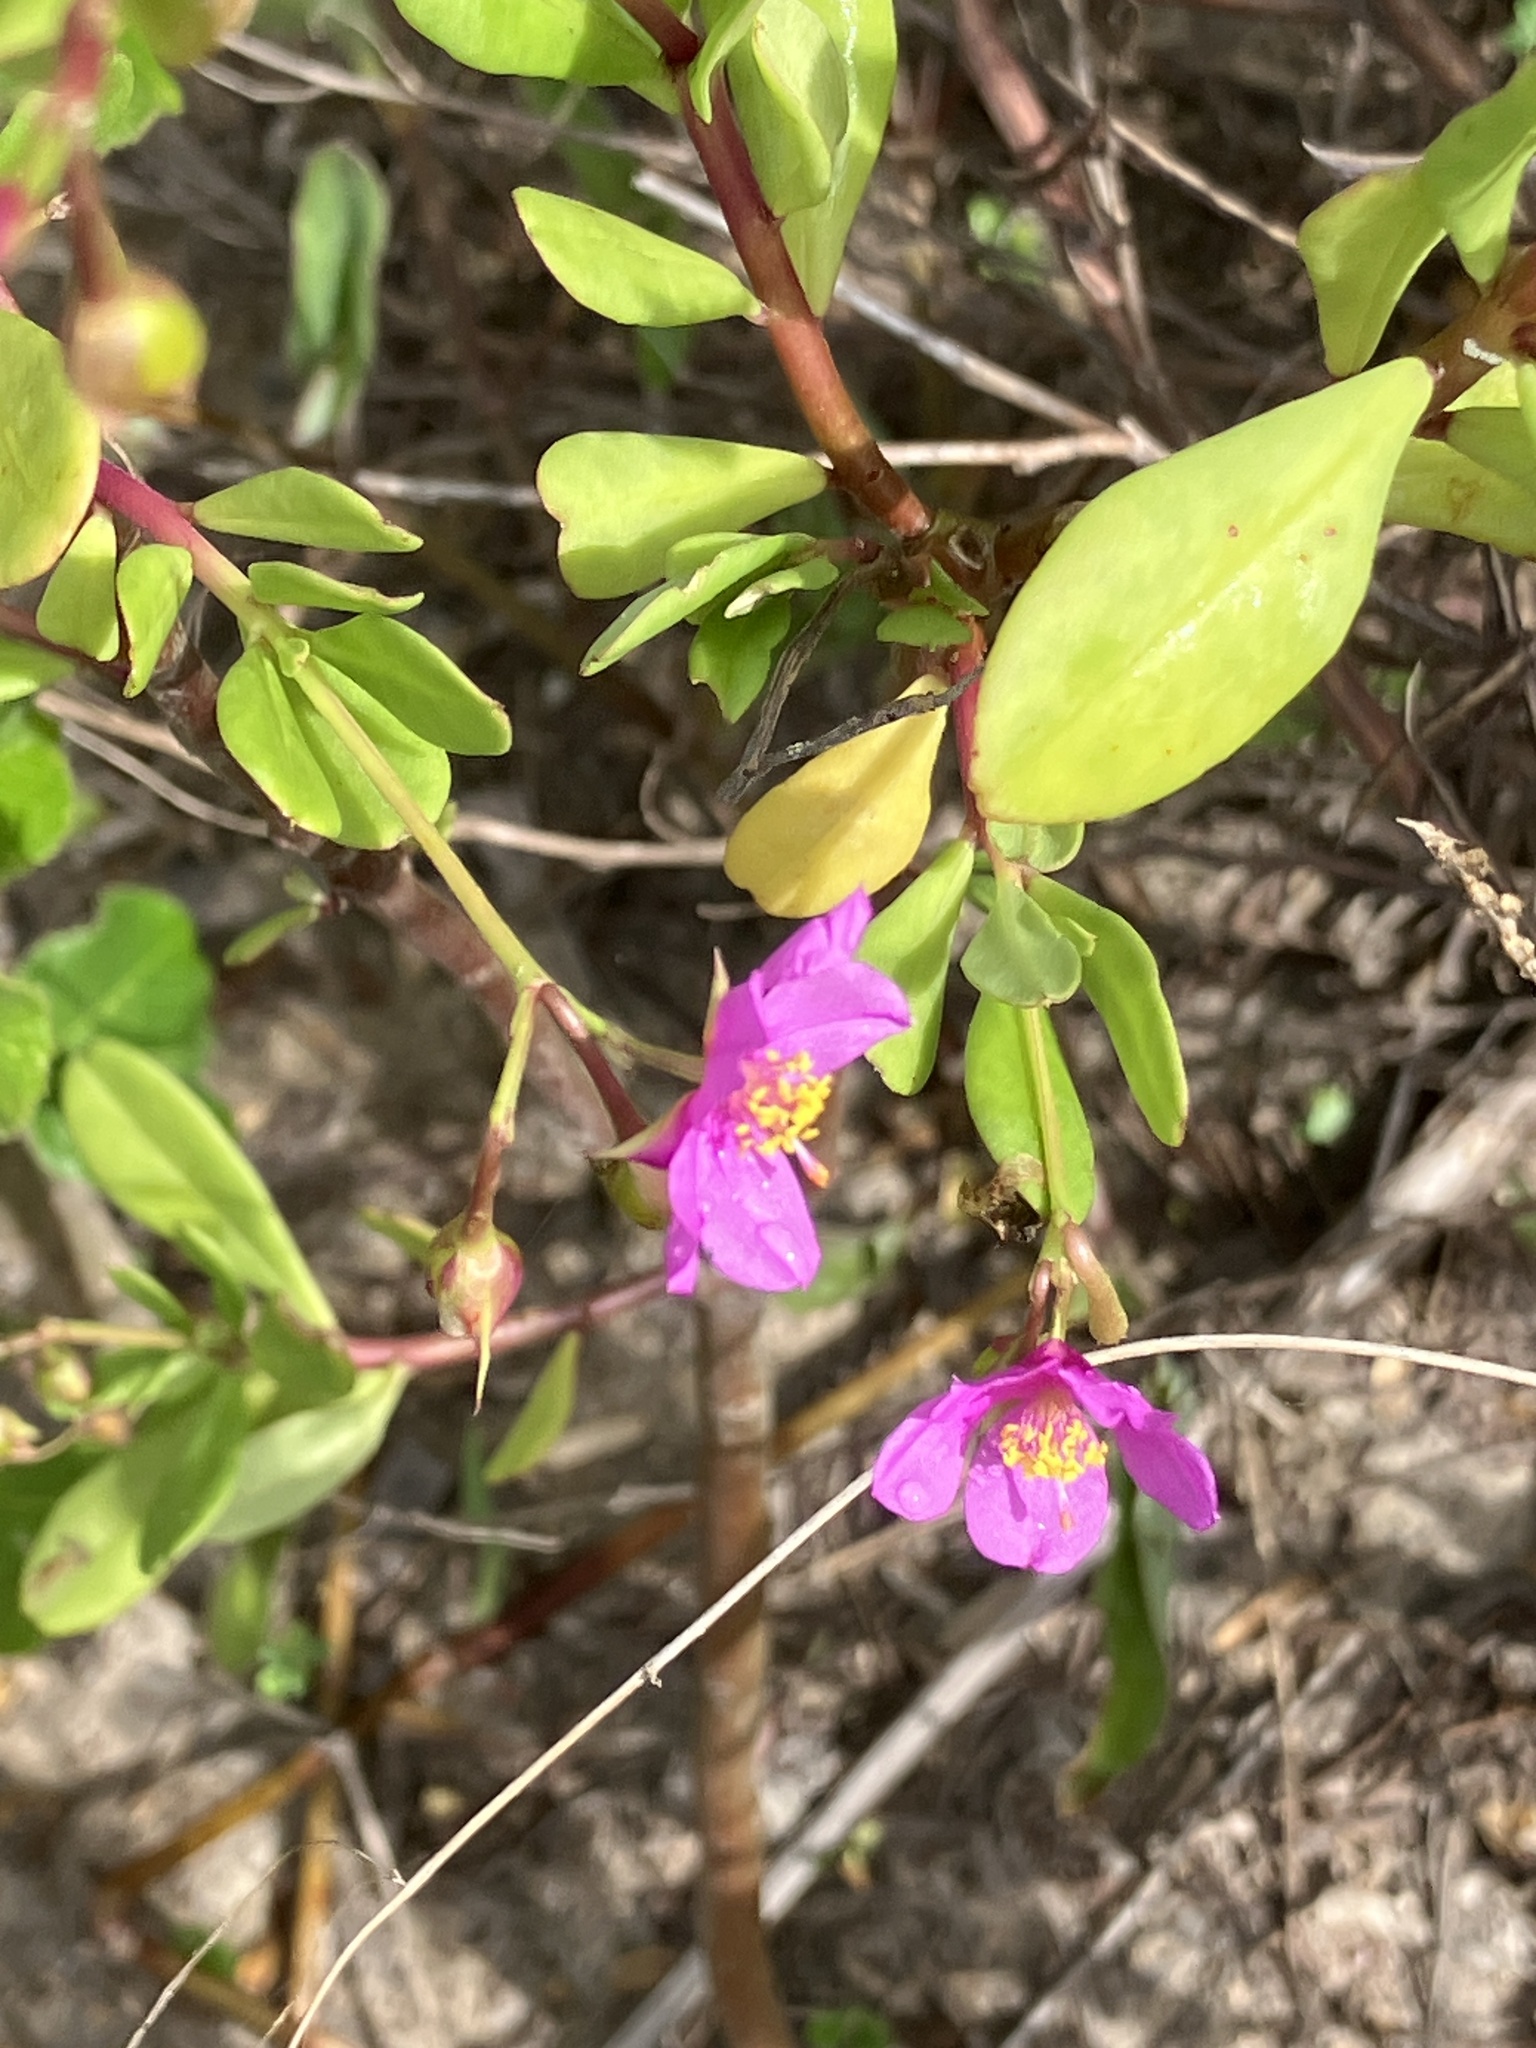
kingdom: Plantae
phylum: Tracheophyta
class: Magnoliopsida
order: Caryophyllales
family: Talinaceae
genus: Talinum
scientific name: Talinum fruticosum
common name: Verdolaga-francesa
